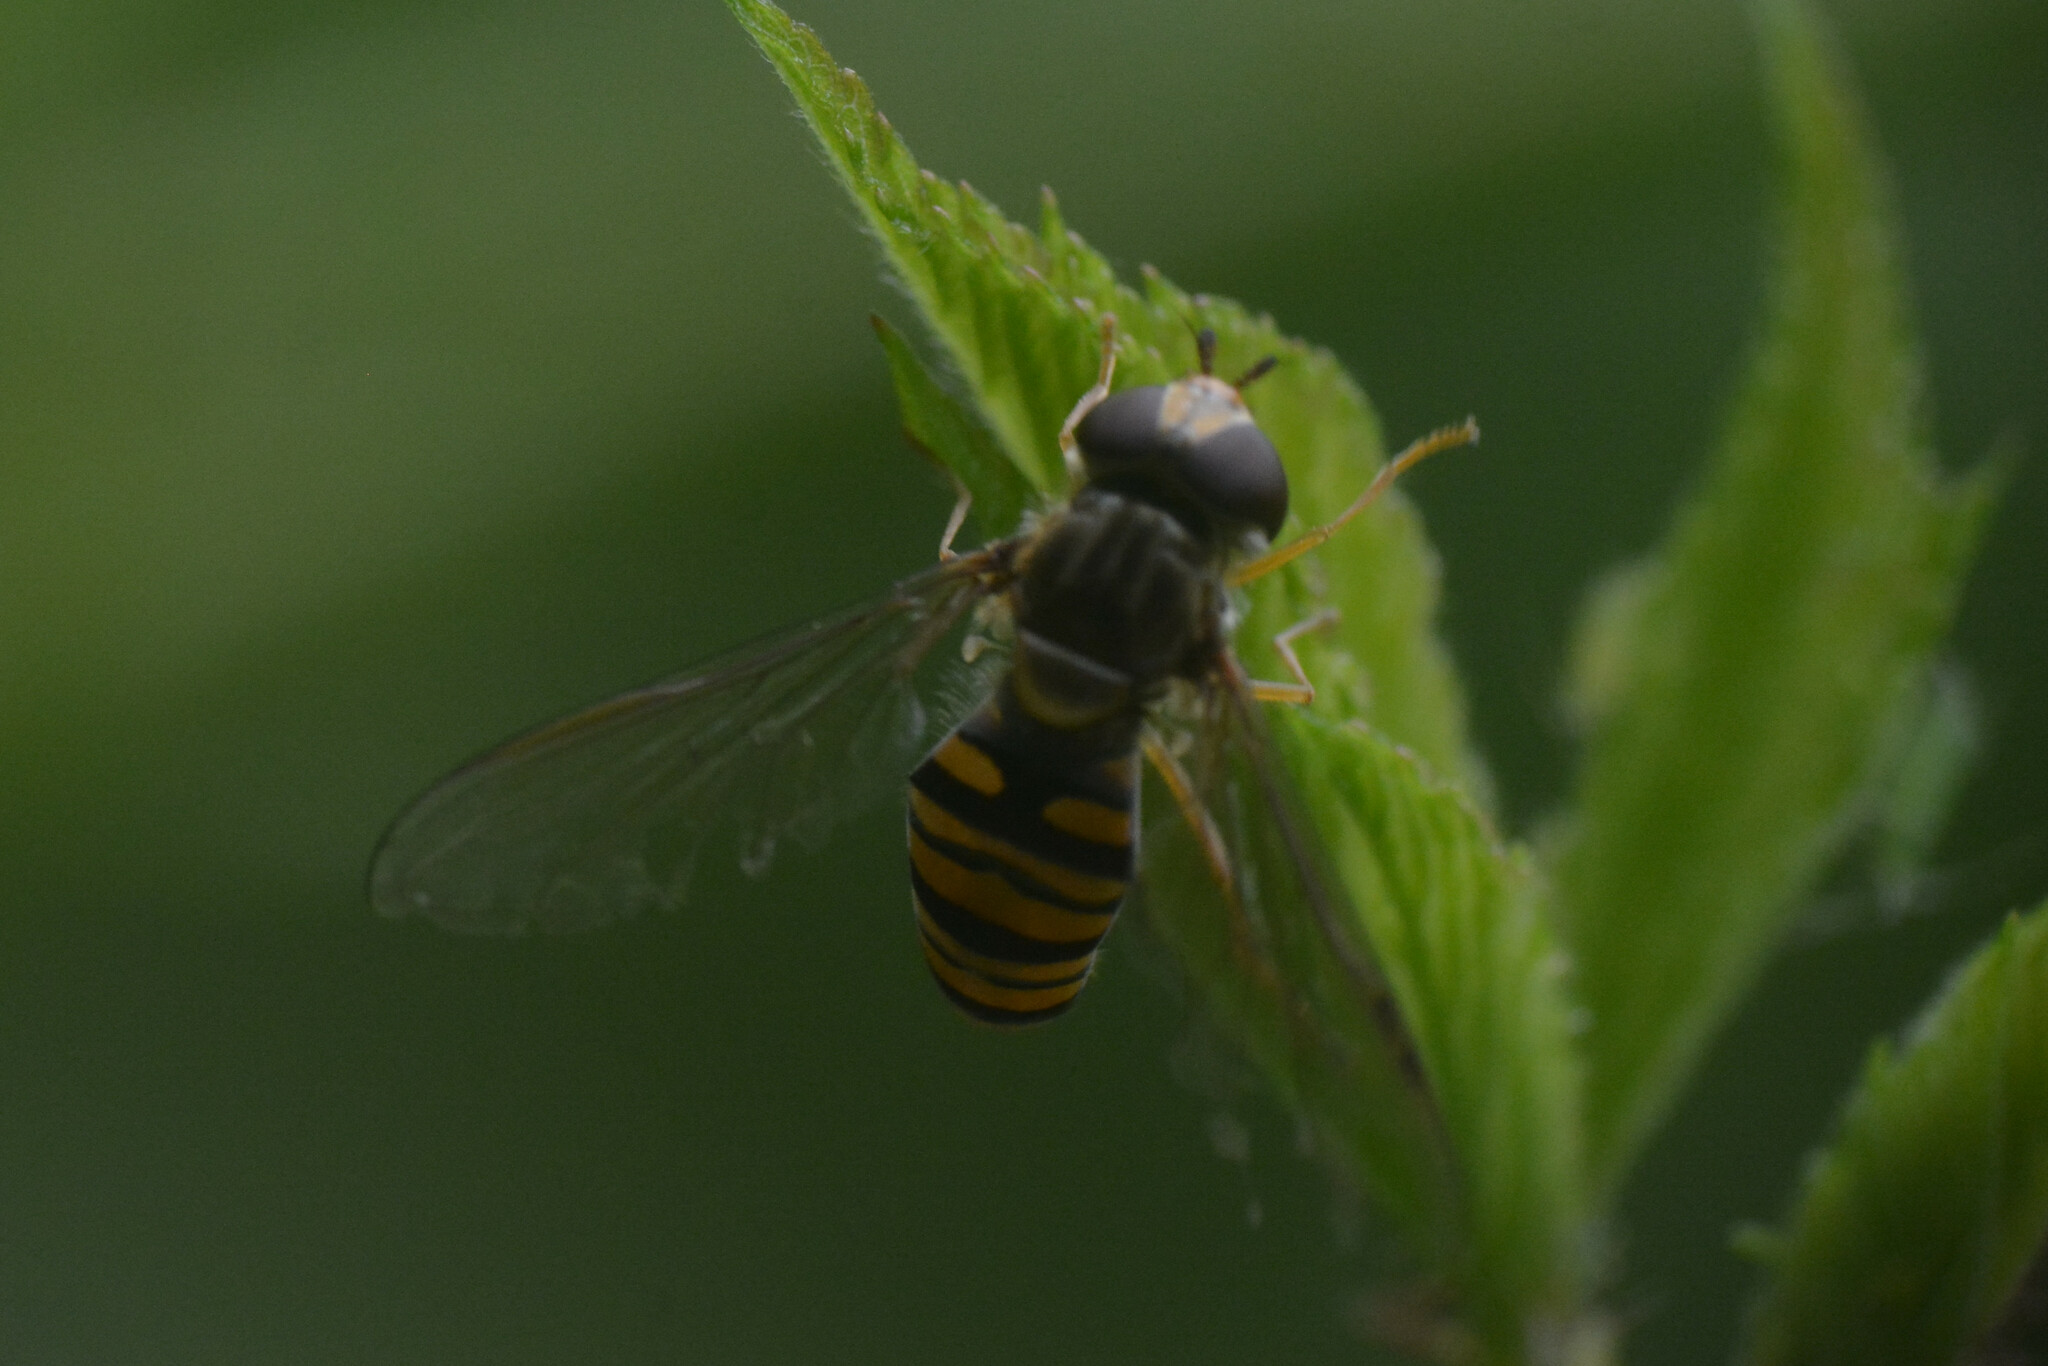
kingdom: Animalia
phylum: Arthropoda
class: Insecta
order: Diptera
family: Syrphidae
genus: Episyrphus
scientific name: Episyrphus balteatus
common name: Marmalade hoverfly
